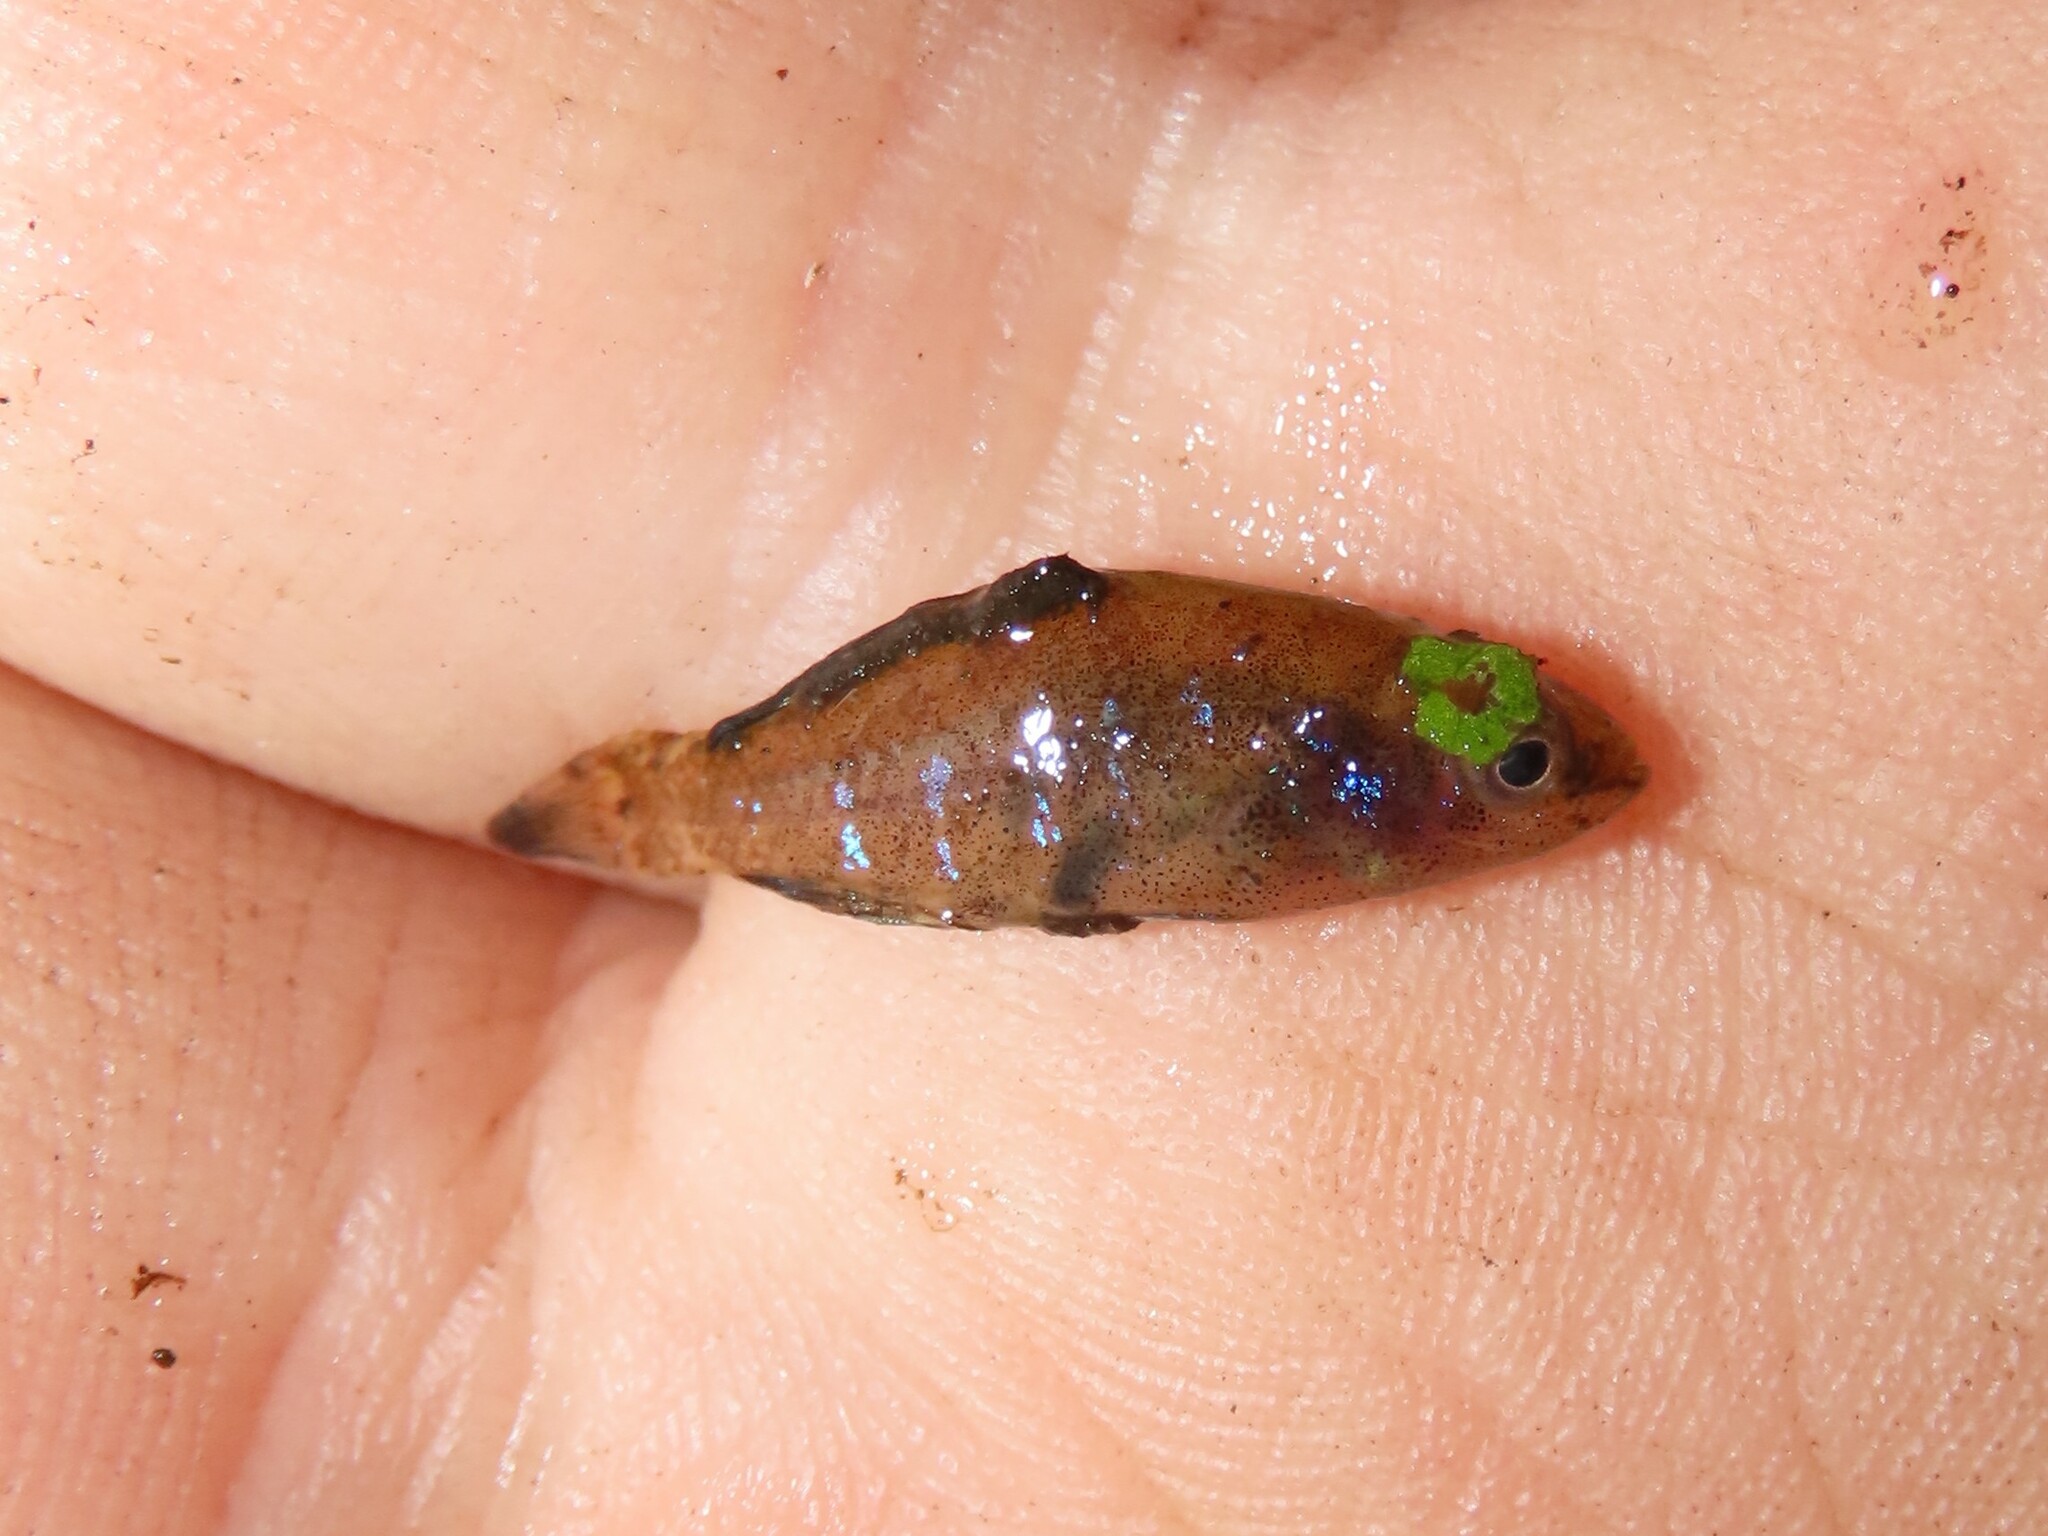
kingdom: Animalia
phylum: Chordata
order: Perciformes
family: Elassomatidae
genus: Elassoma
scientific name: Elassoma okefenokee
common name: Okefenokee pygmy sunfish
